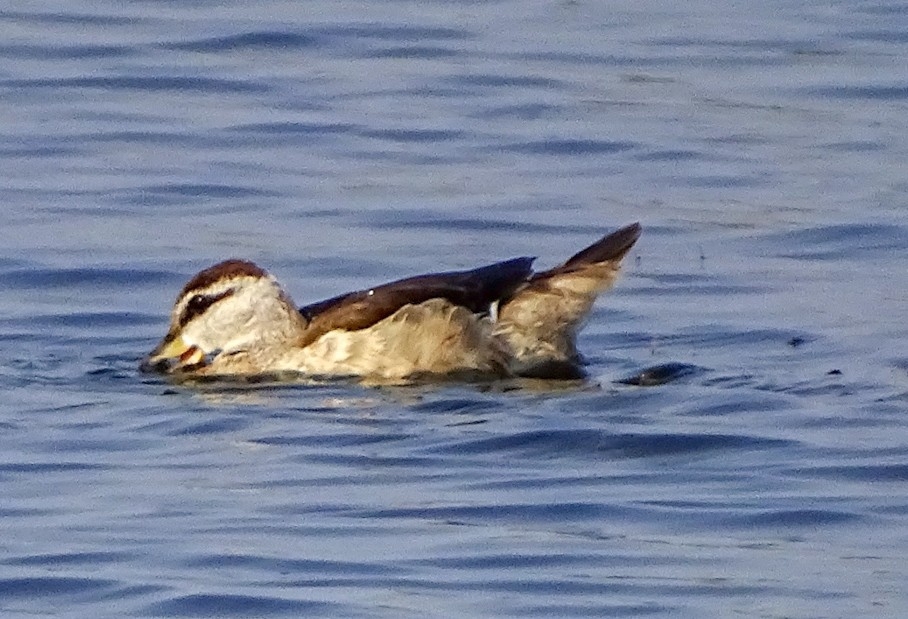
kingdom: Animalia
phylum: Chordata
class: Aves
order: Anseriformes
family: Anatidae
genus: Nettapus
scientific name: Nettapus coromandelianus
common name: Cotton pygmy-goose
